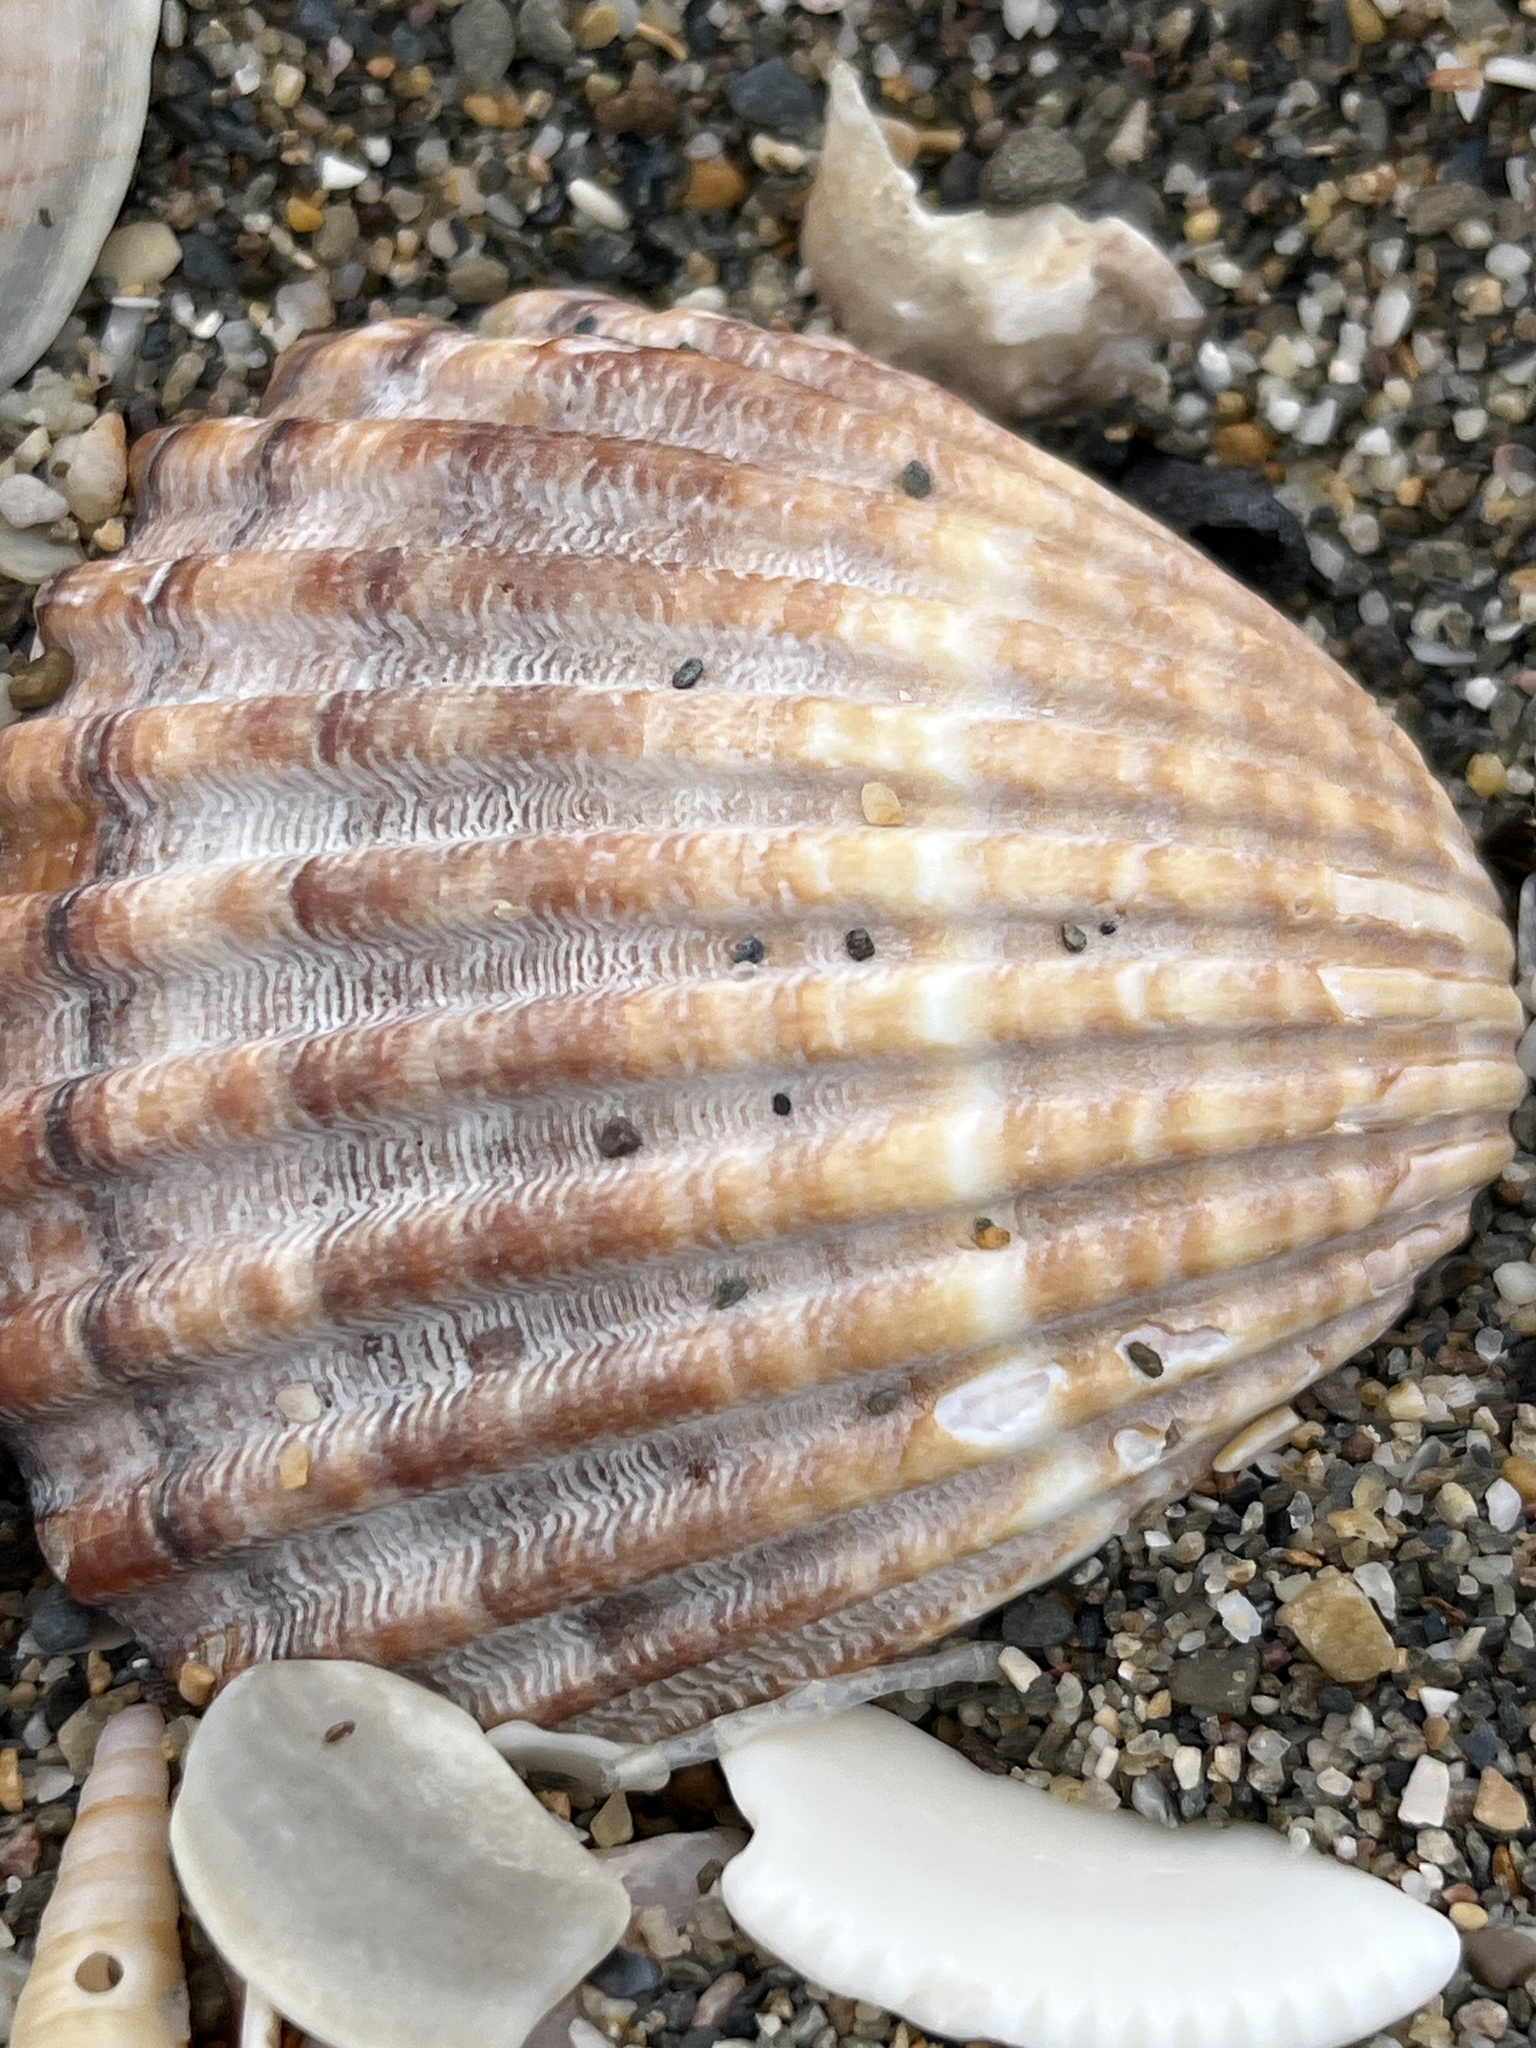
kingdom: Animalia
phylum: Mollusca
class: Bivalvia
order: Cardiida
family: Cardiidae
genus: Acanthocardia
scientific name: Acanthocardia tuberculata
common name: Rough cockle
